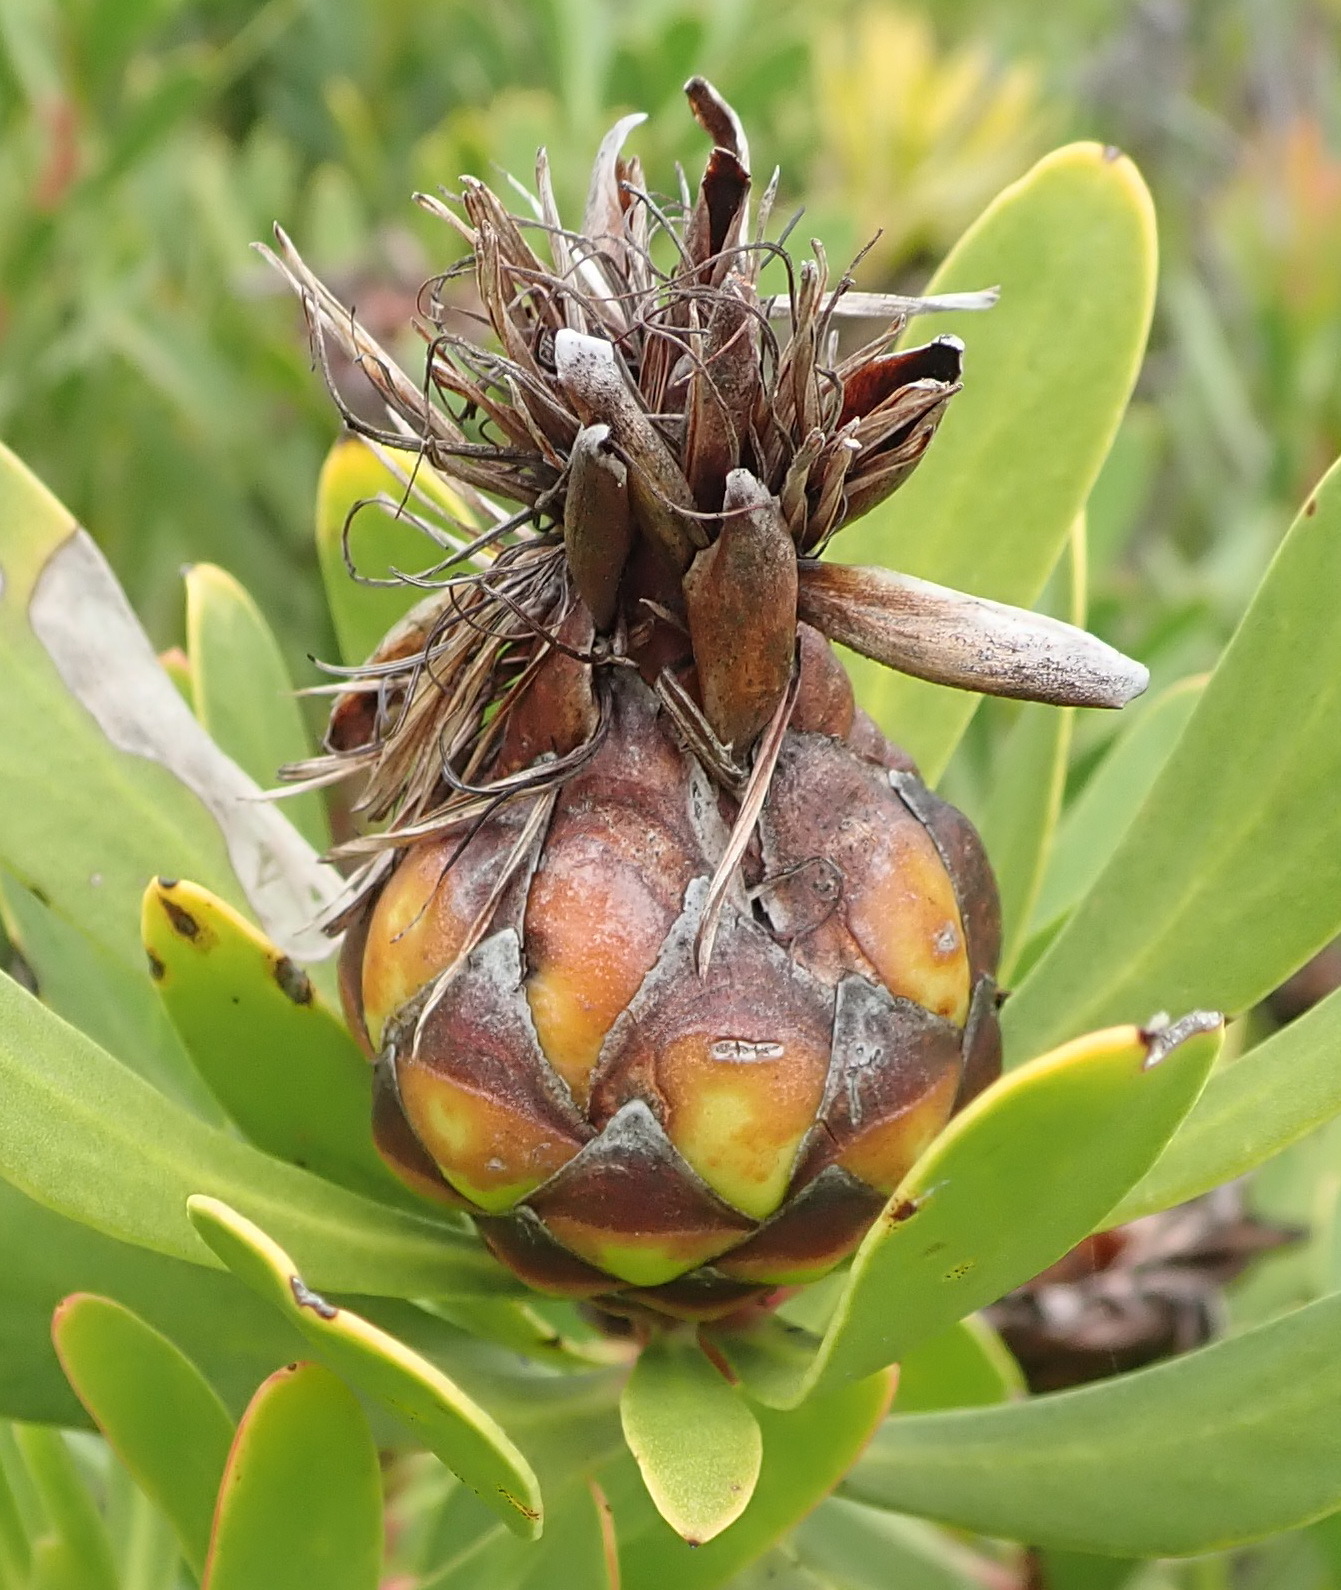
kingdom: Plantae
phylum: Tracheophyta
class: Magnoliopsida
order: Proteales
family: Proteaceae
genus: Protea
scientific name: Protea lanceolata
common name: Lance-leaved protea
